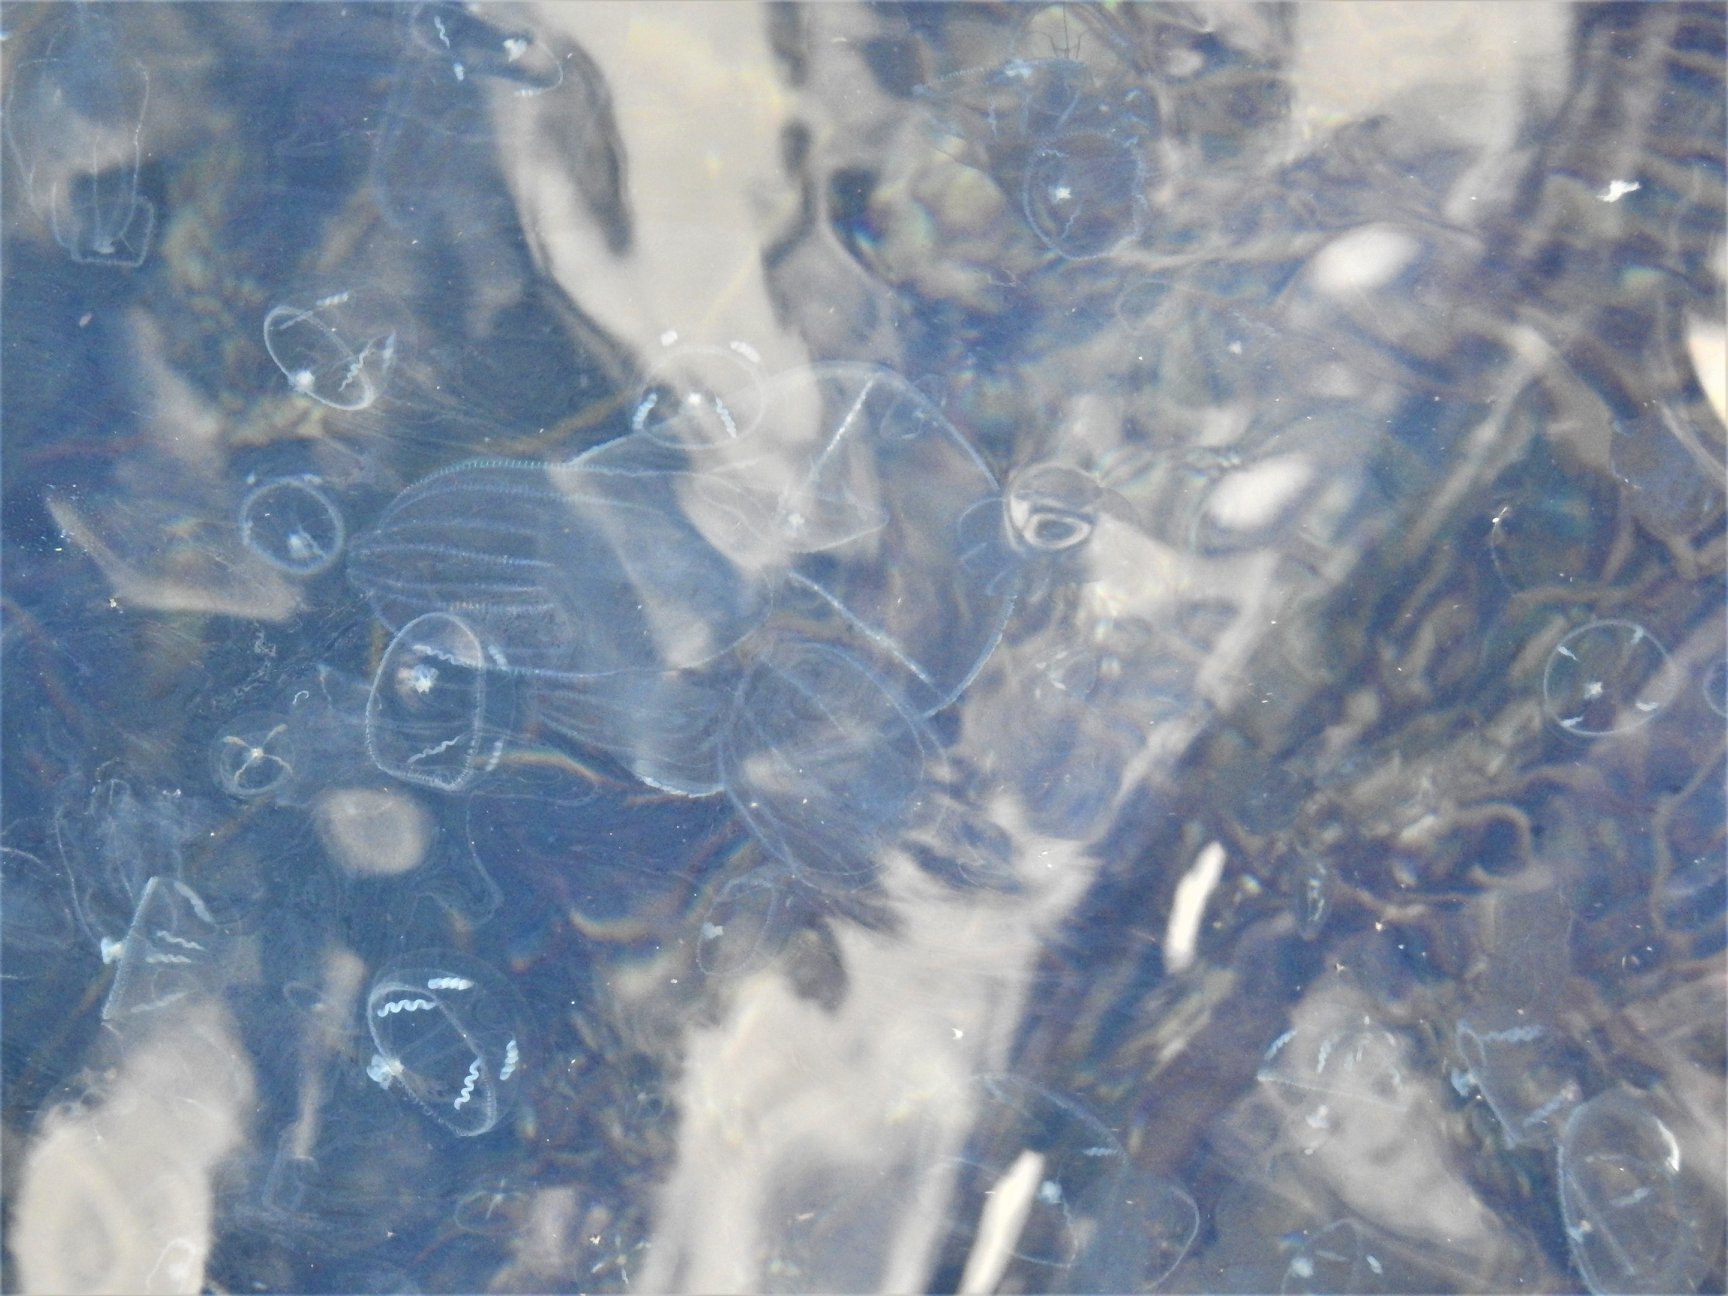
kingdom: Animalia
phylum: Cnidaria
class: Hydrozoa
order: Leptothecata
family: Eirenidae
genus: Eutonina
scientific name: Eutonina indicans
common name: Umbrella jellyfish
